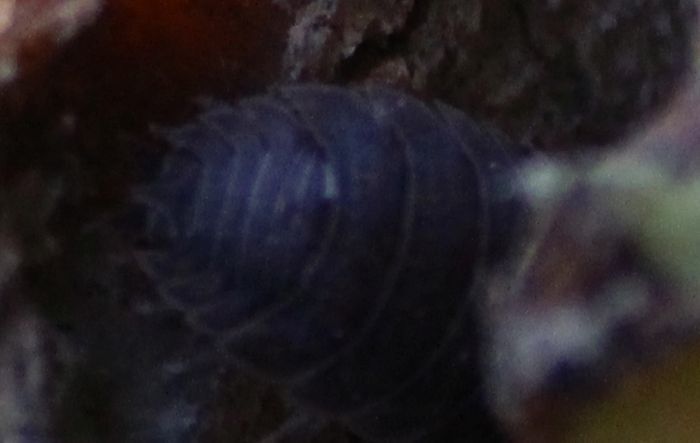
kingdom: Animalia
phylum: Arthropoda
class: Malacostraca
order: Isopoda
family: Porcellionidae
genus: Porcellio
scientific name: Porcellio scaber
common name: Common rough woodlouse
